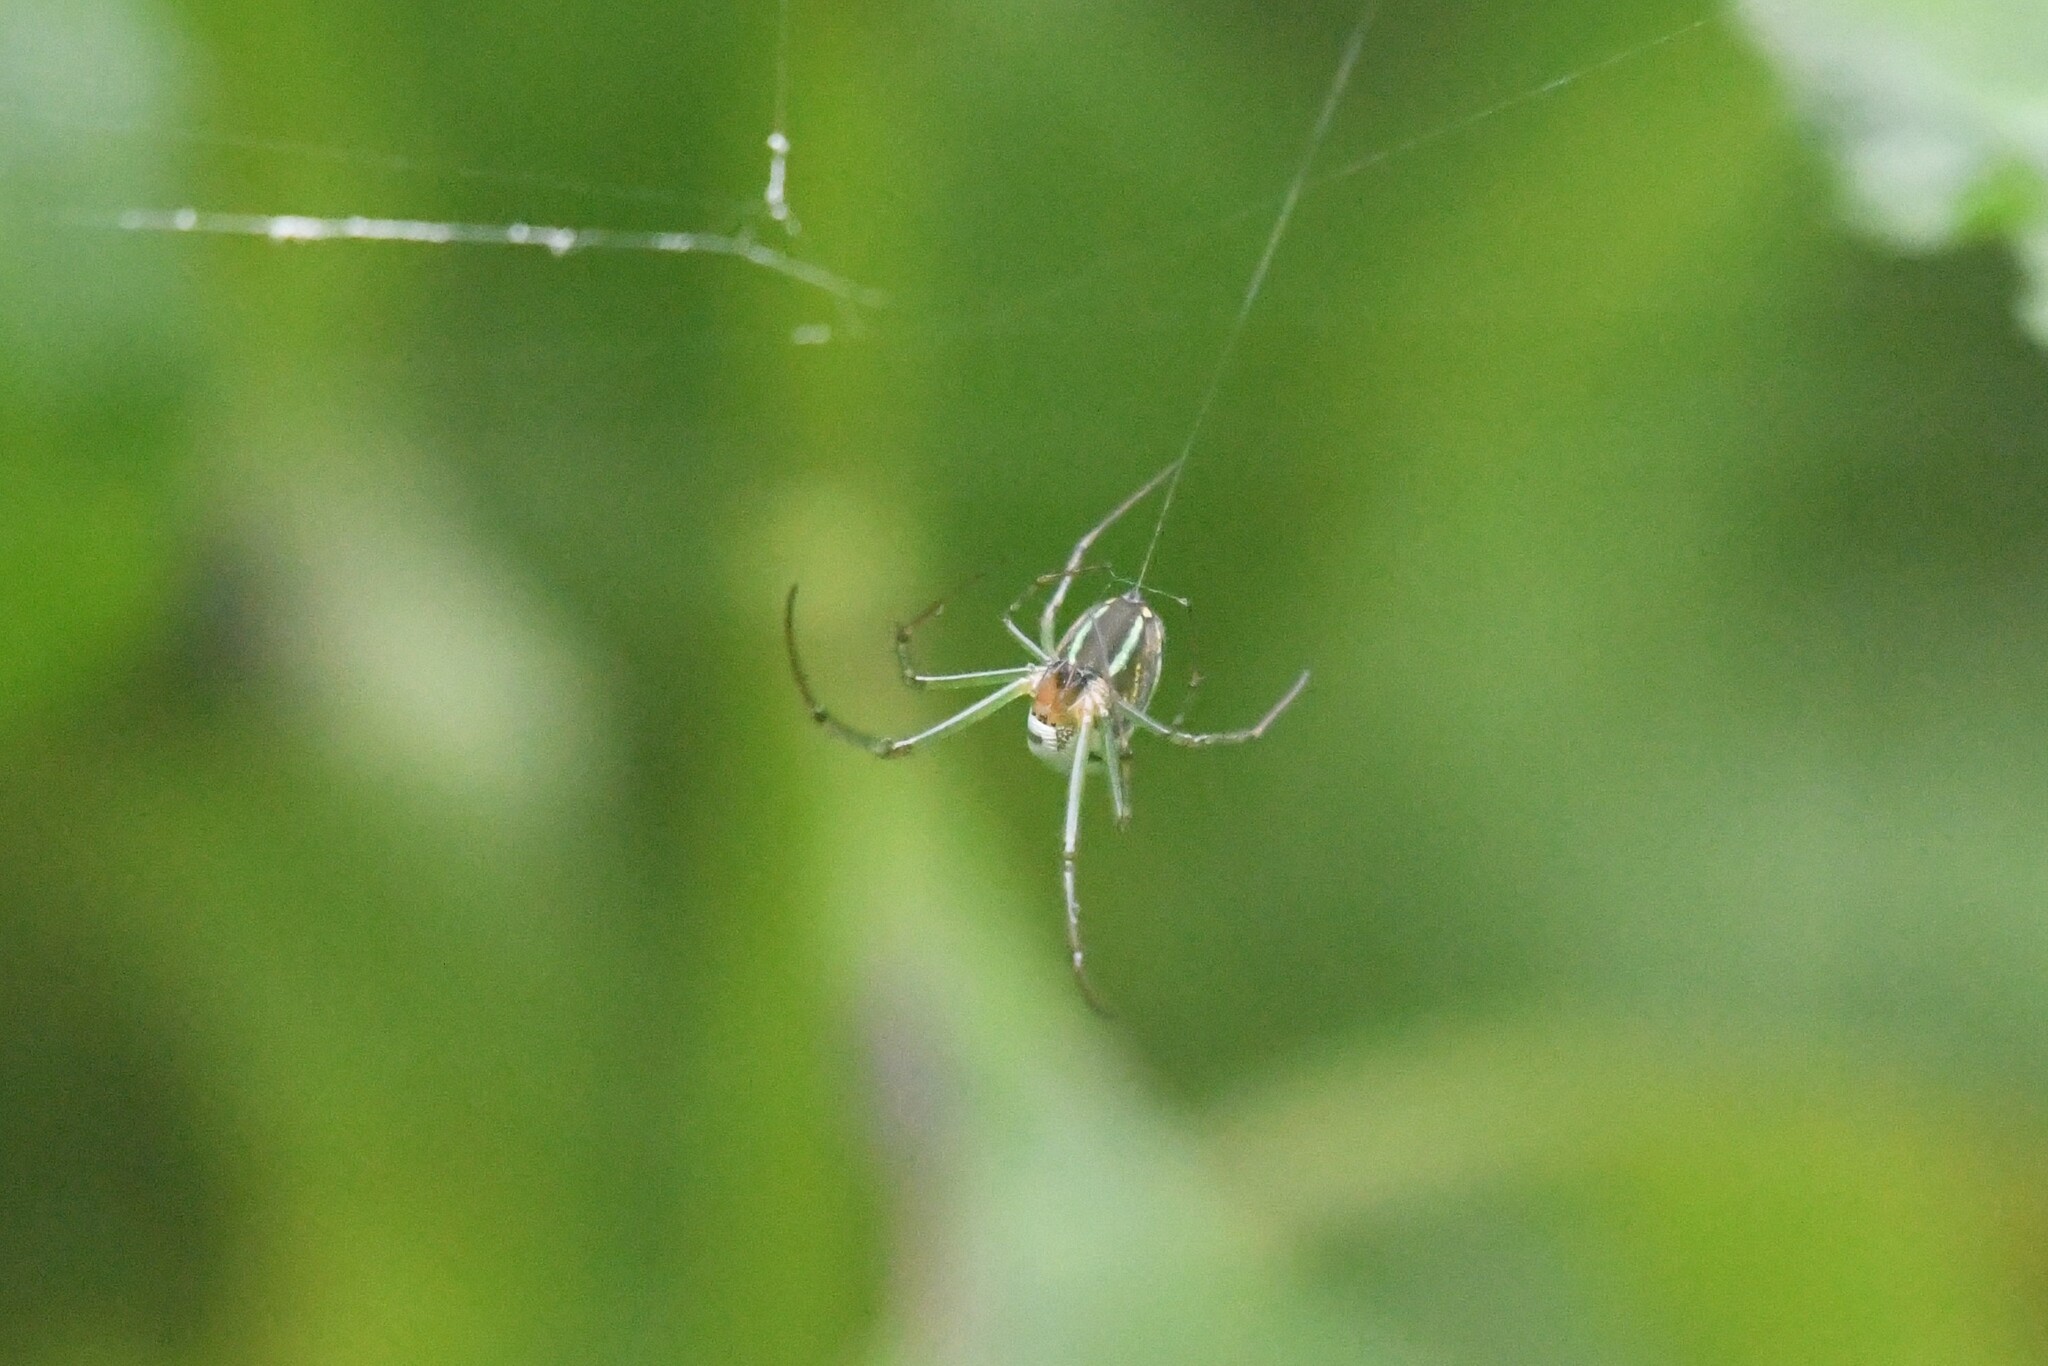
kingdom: Animalia
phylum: Arthropoda
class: Arachnida
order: Araneae
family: Tetragnathidae
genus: Leucauge
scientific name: Leucauge celebesiana
